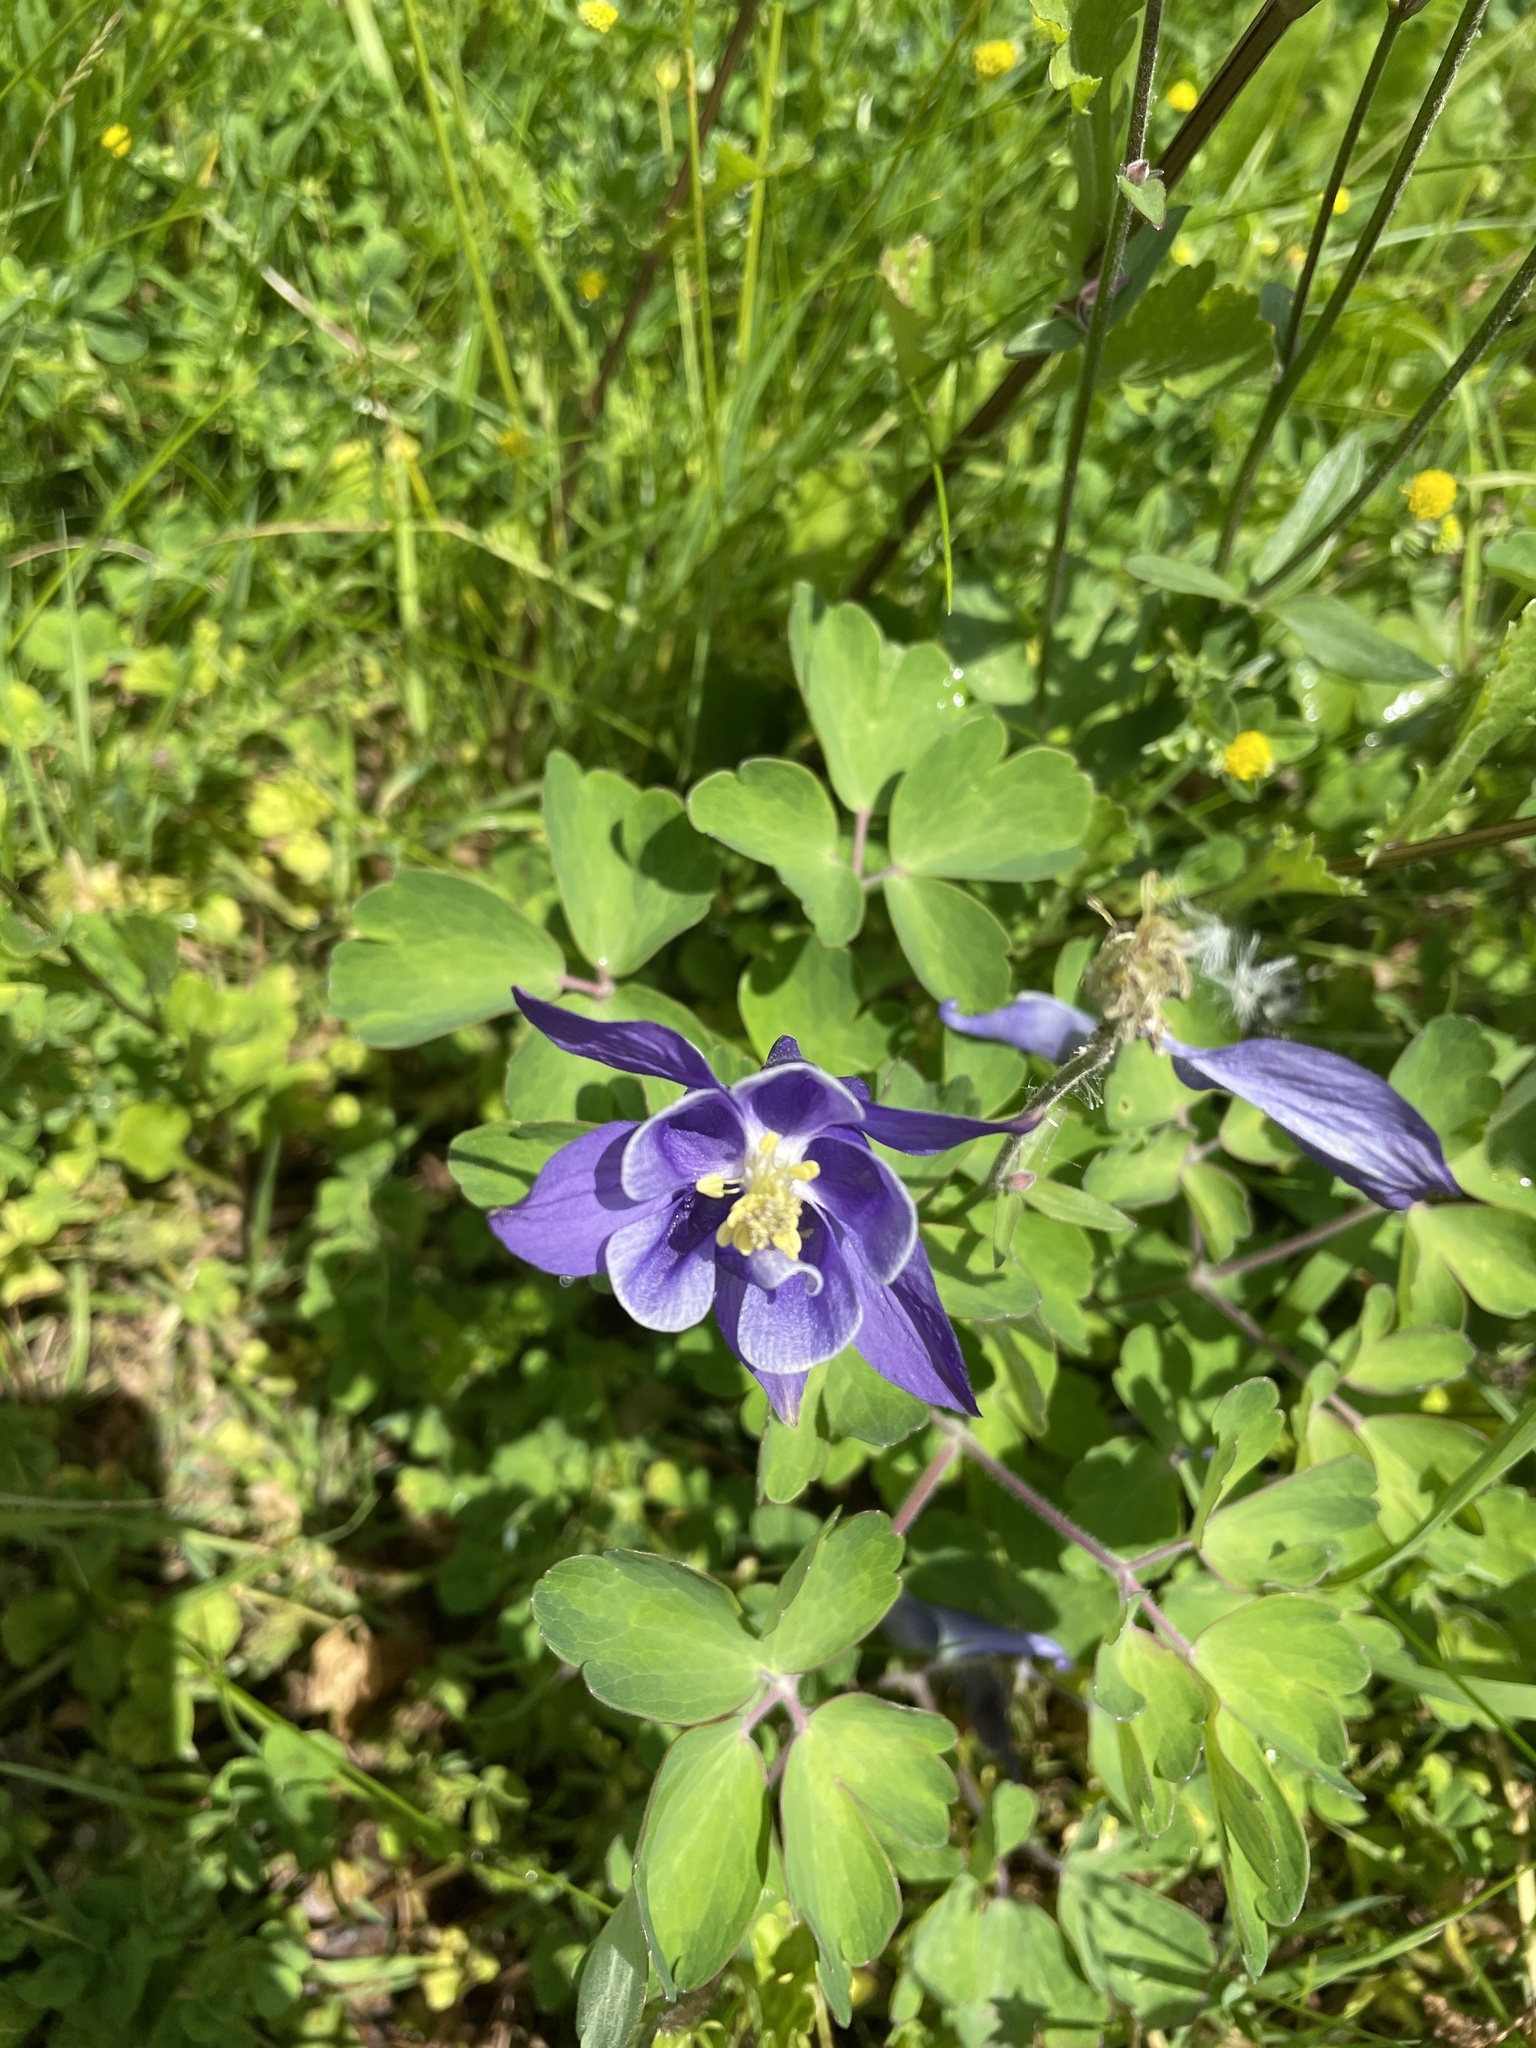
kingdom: Plantae
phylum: Tracheophyta
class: Magnoliopsida
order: Ranunculales
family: Ranunculaceae
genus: Aquilegia
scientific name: Aquilegia vulgaris
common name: Columbine
